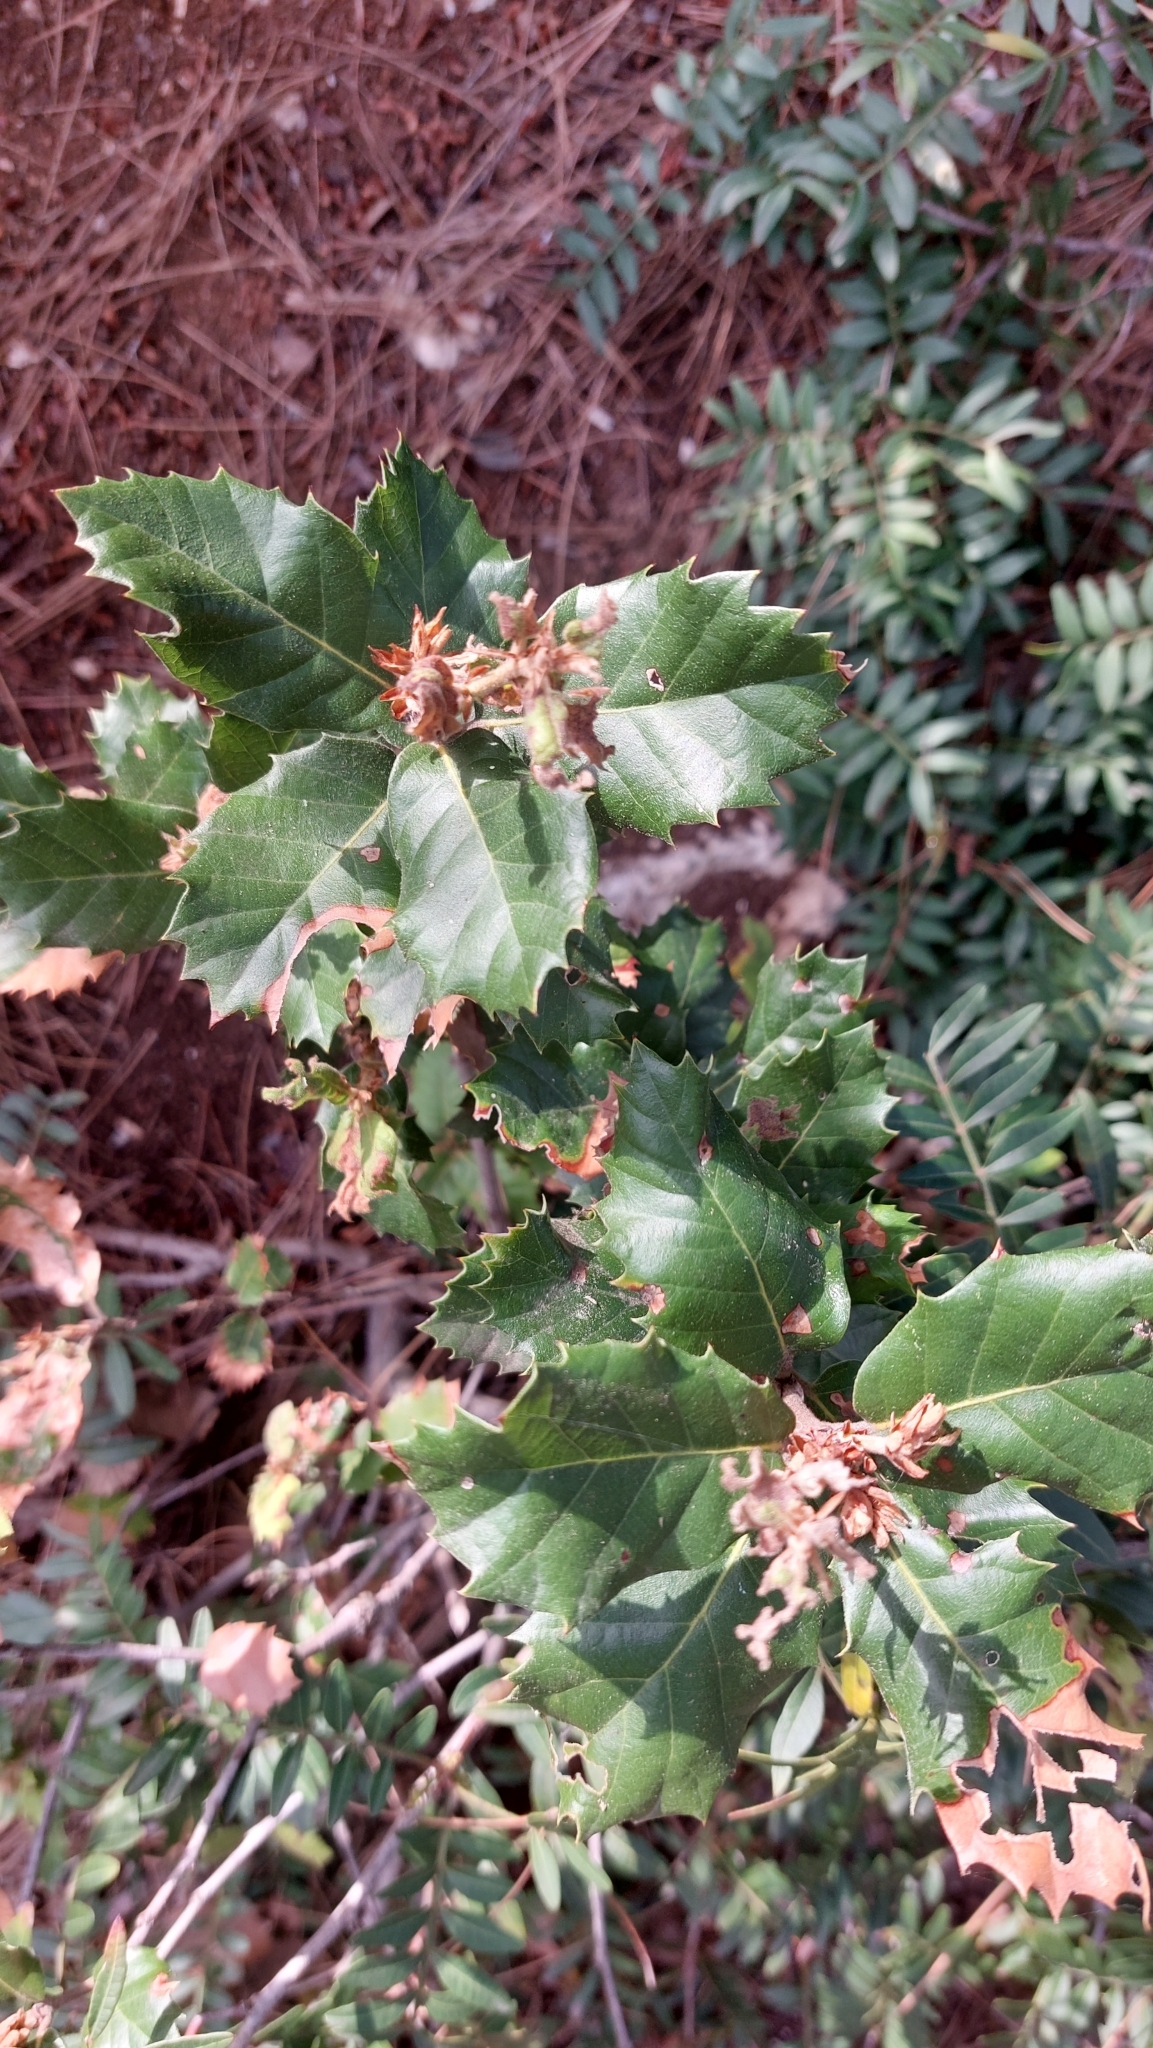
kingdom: Plantae
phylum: Tracheophyta
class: Magnoliopsida
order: Fagales
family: Fagaceae
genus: Quercus
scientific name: Quercus ilex
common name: Evergreen oak
